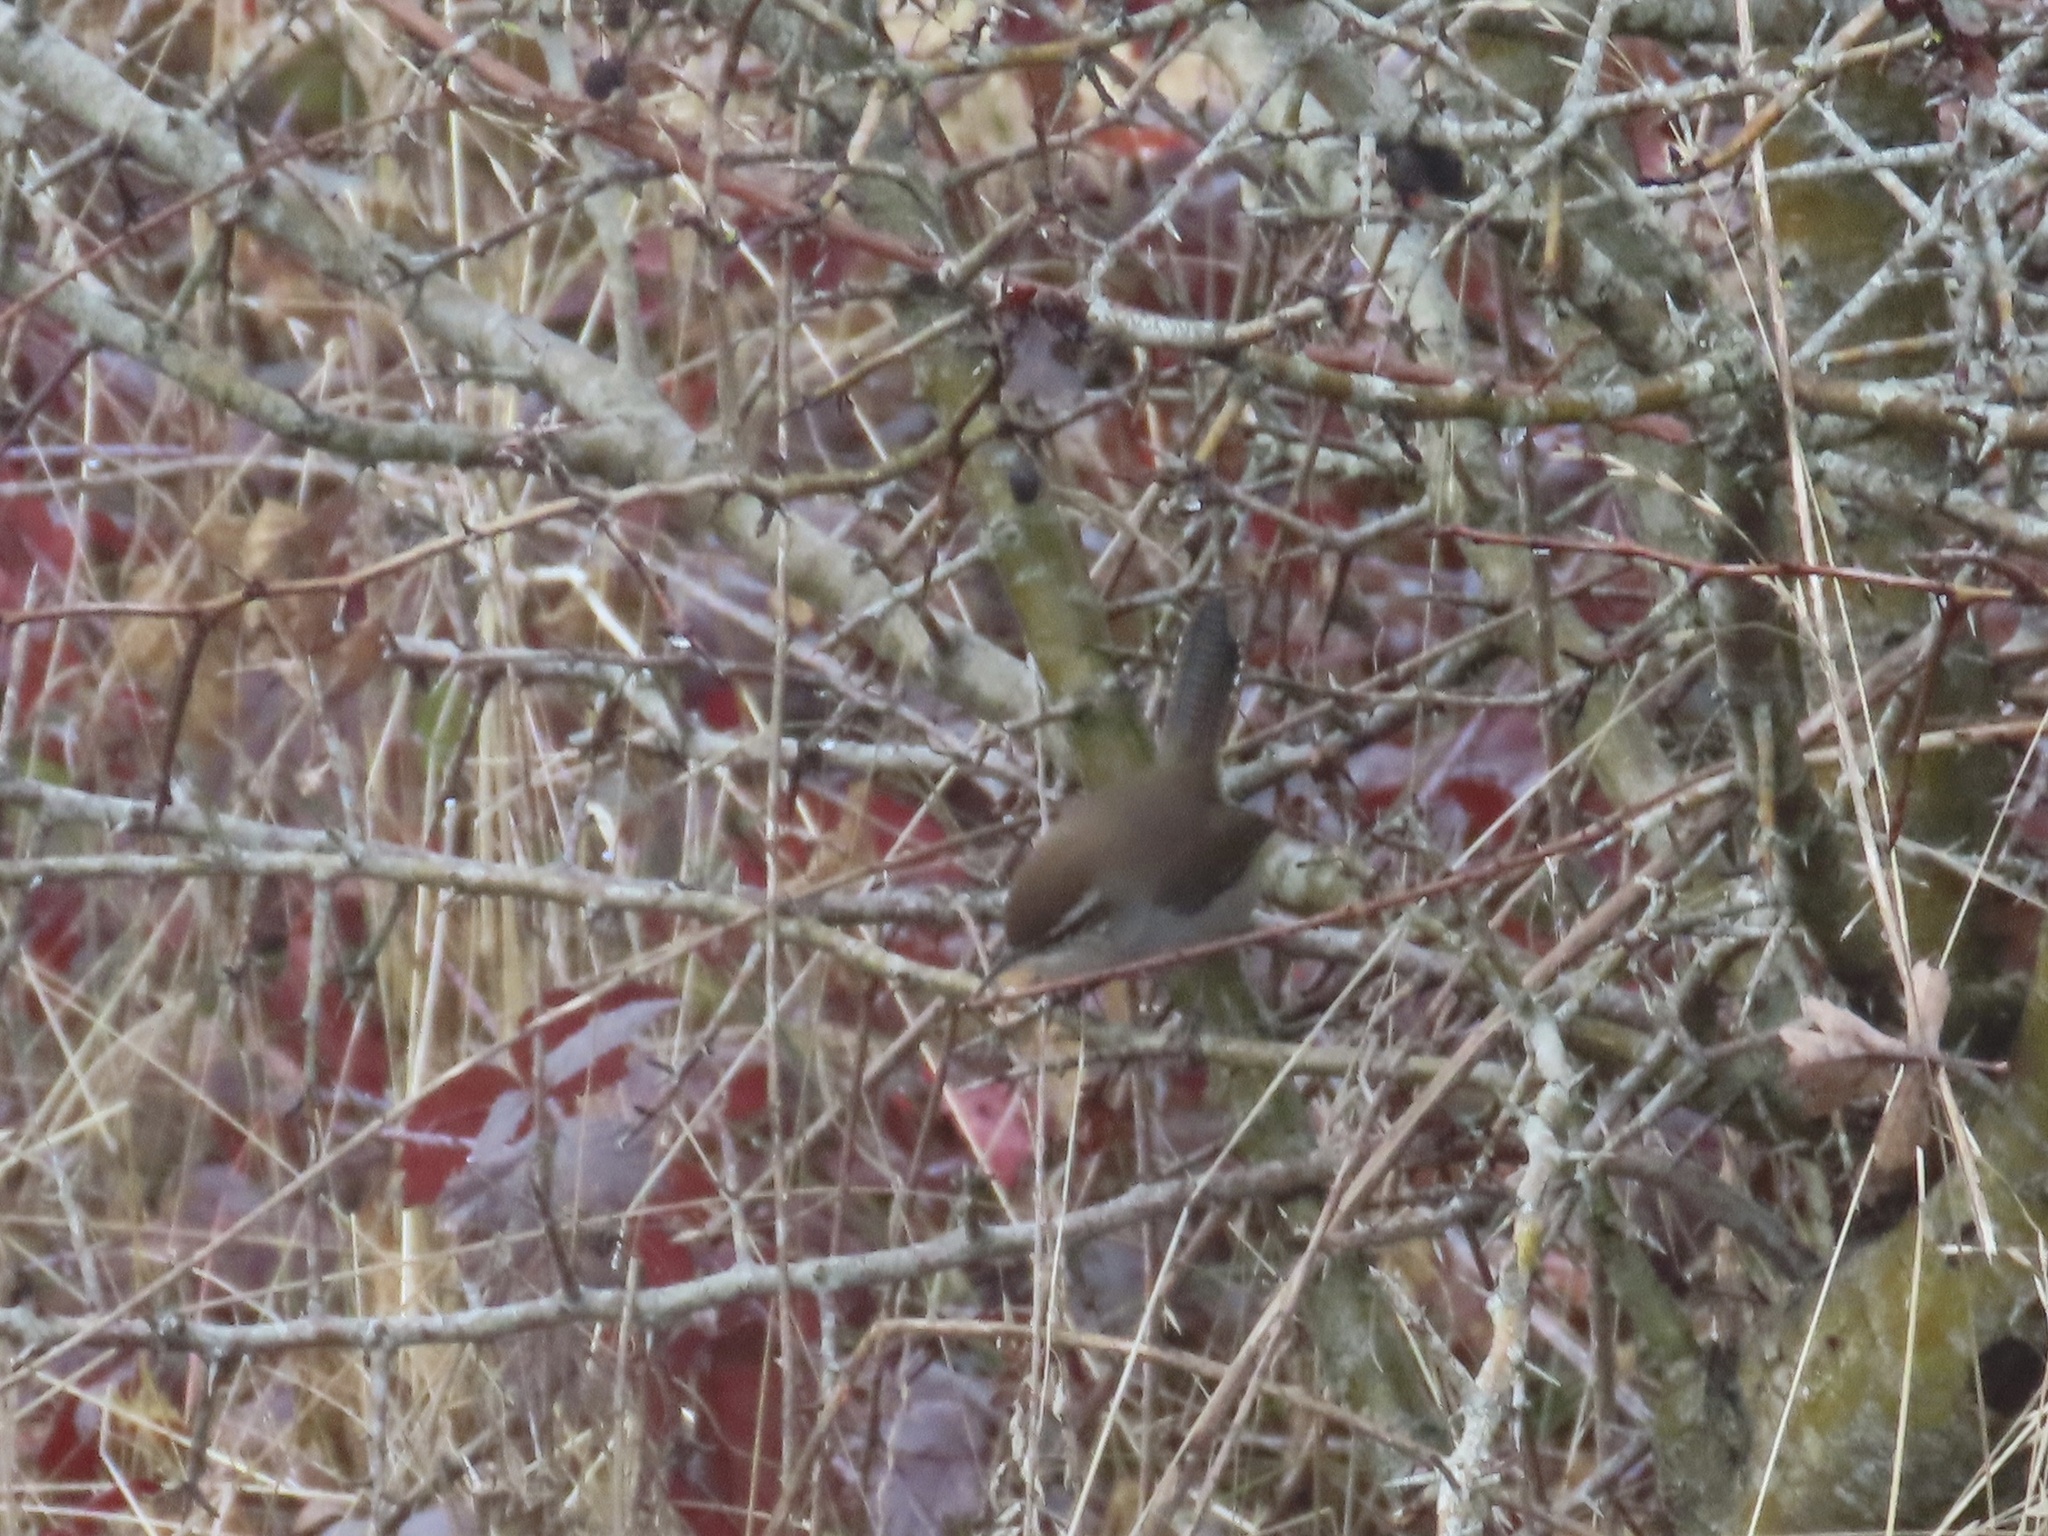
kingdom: Animalia
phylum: Chordata
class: Aves
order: Passeriformes
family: Troglodytidae
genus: Thryomanes
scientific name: Thryomanes bewickii
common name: Bewick's wren
